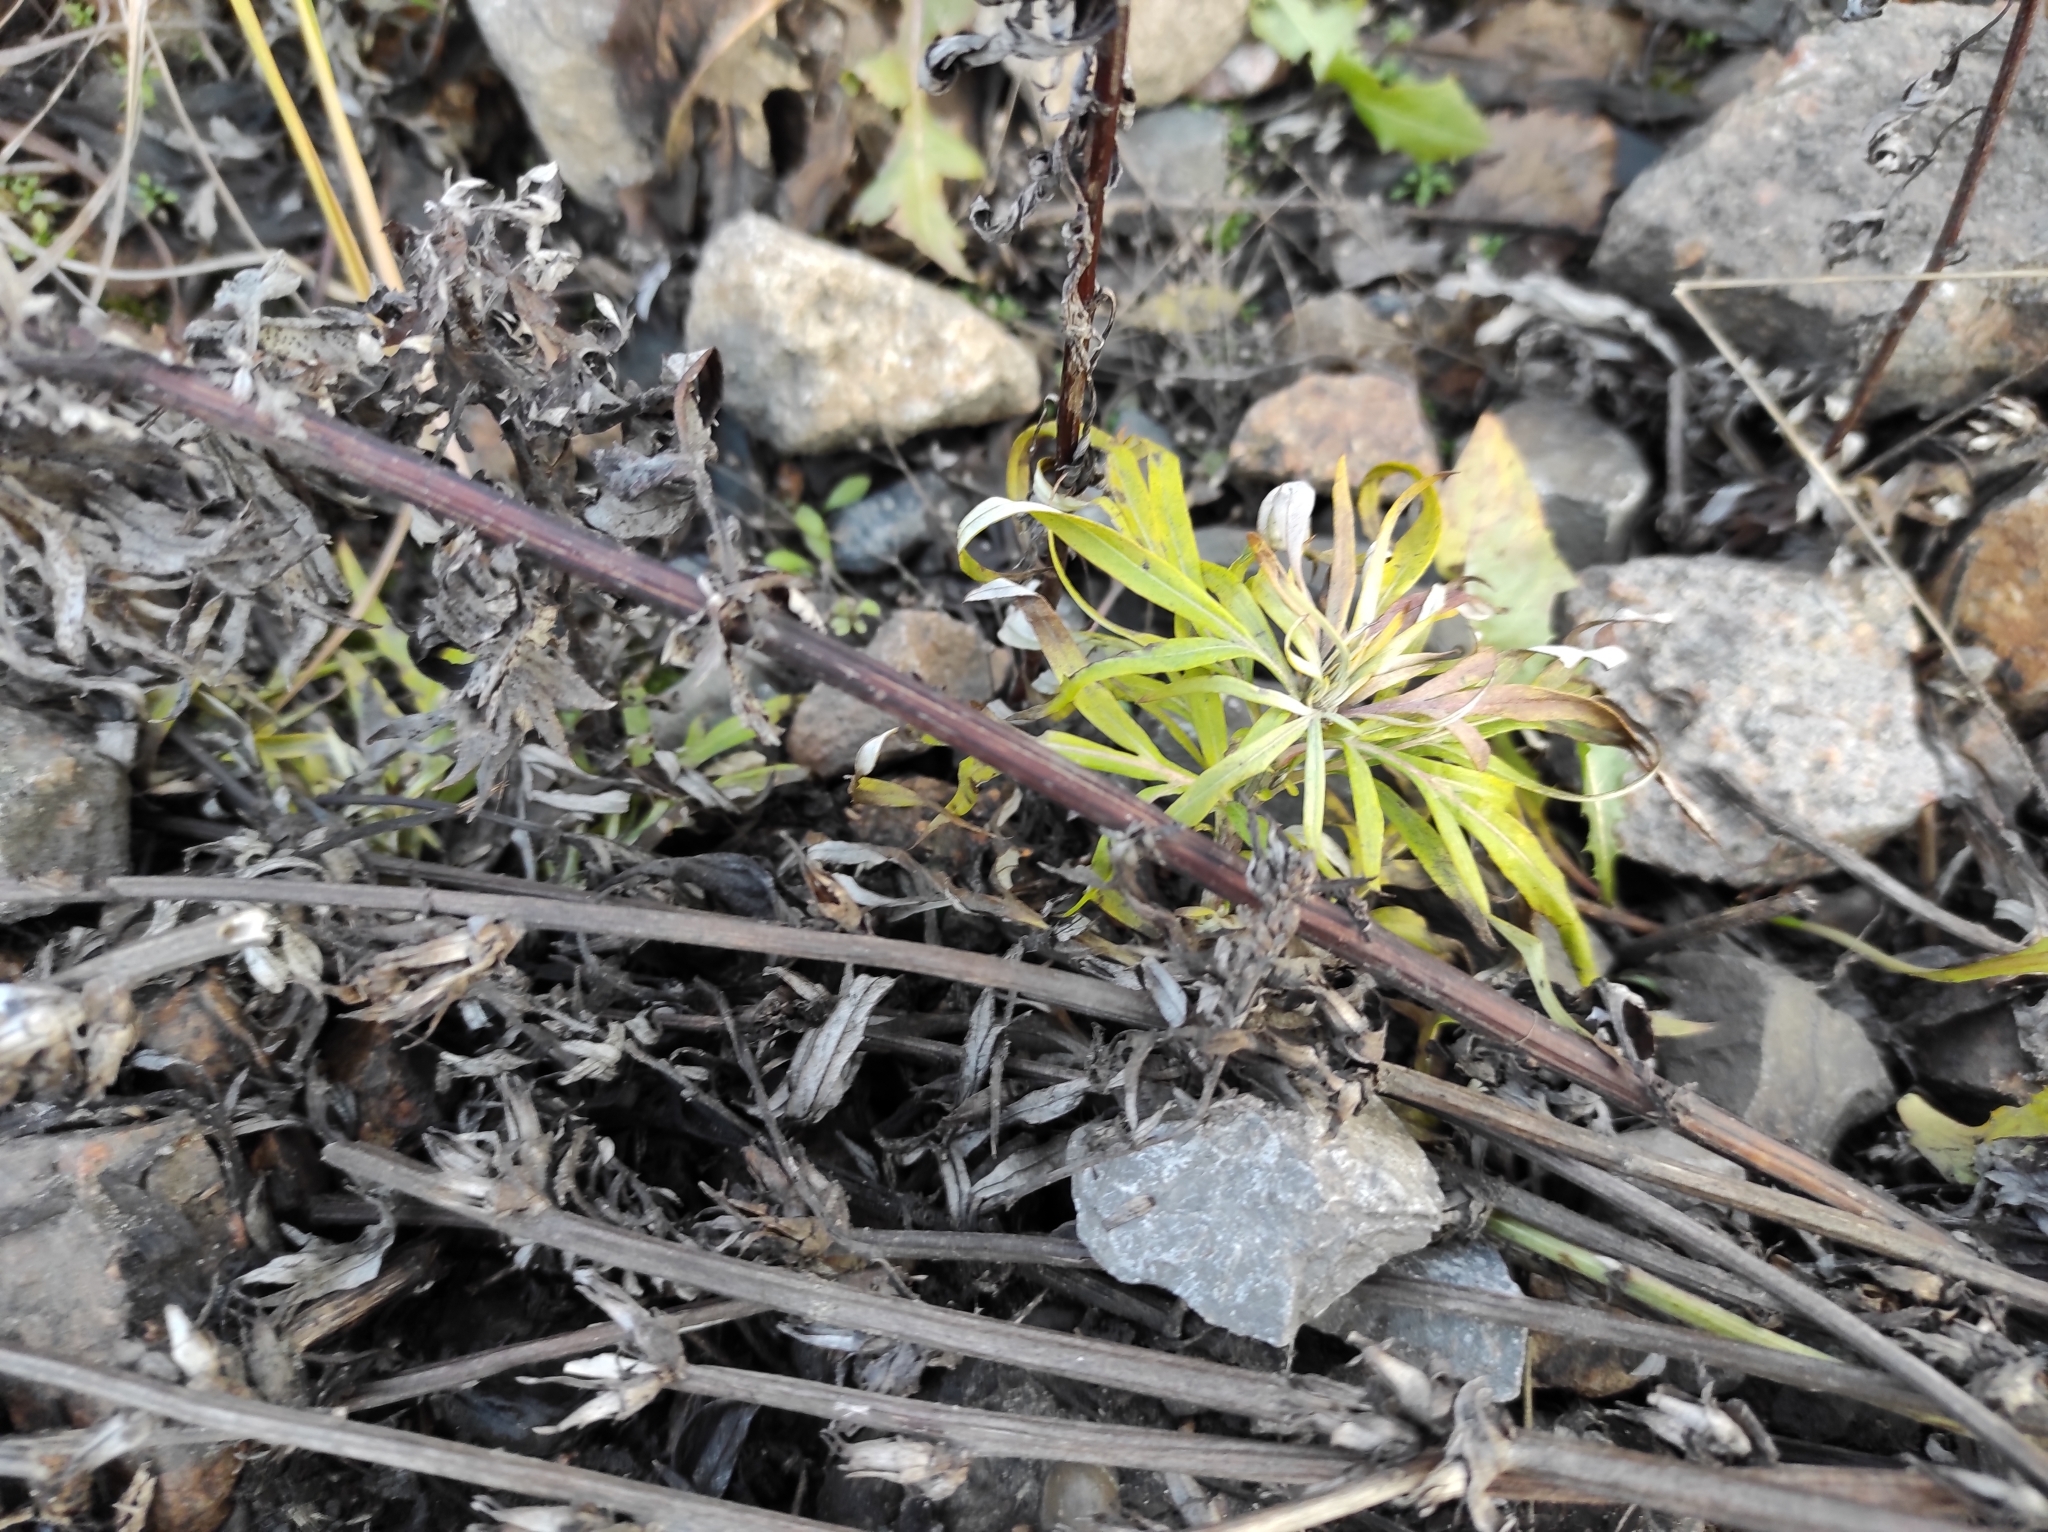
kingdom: Plantae
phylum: Tracheophyta
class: Magnoliopsida
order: Asterales
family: Asteraceae
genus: Artemisia
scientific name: Artemisia vulgaris
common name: Mugwort
